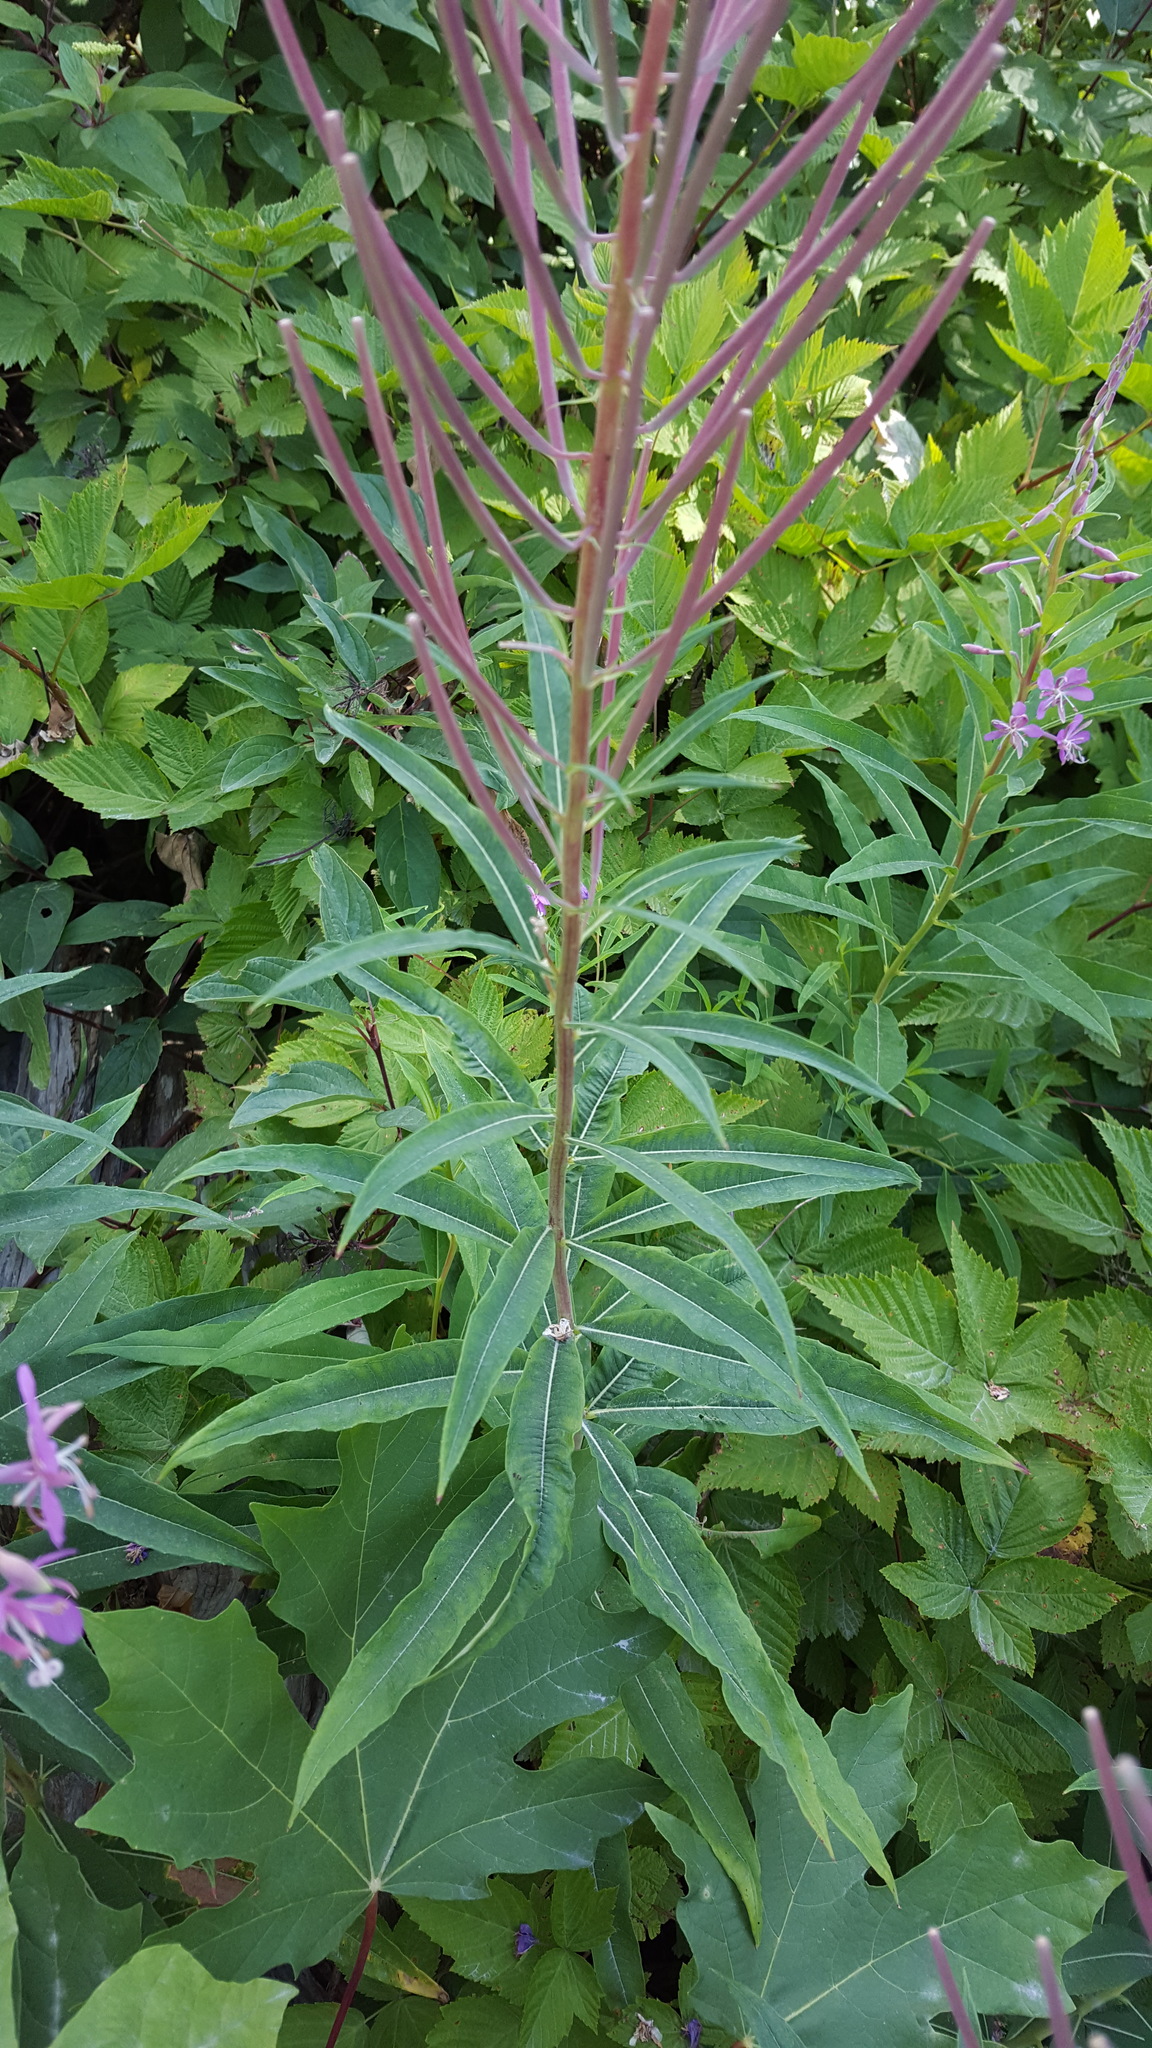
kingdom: Plantae
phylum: Tracheophyta
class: Magnoliopsida
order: Myrtales
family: Onagraceae
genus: Chamaenerion
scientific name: Chamaenerion angustifolium
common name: Fireweed
